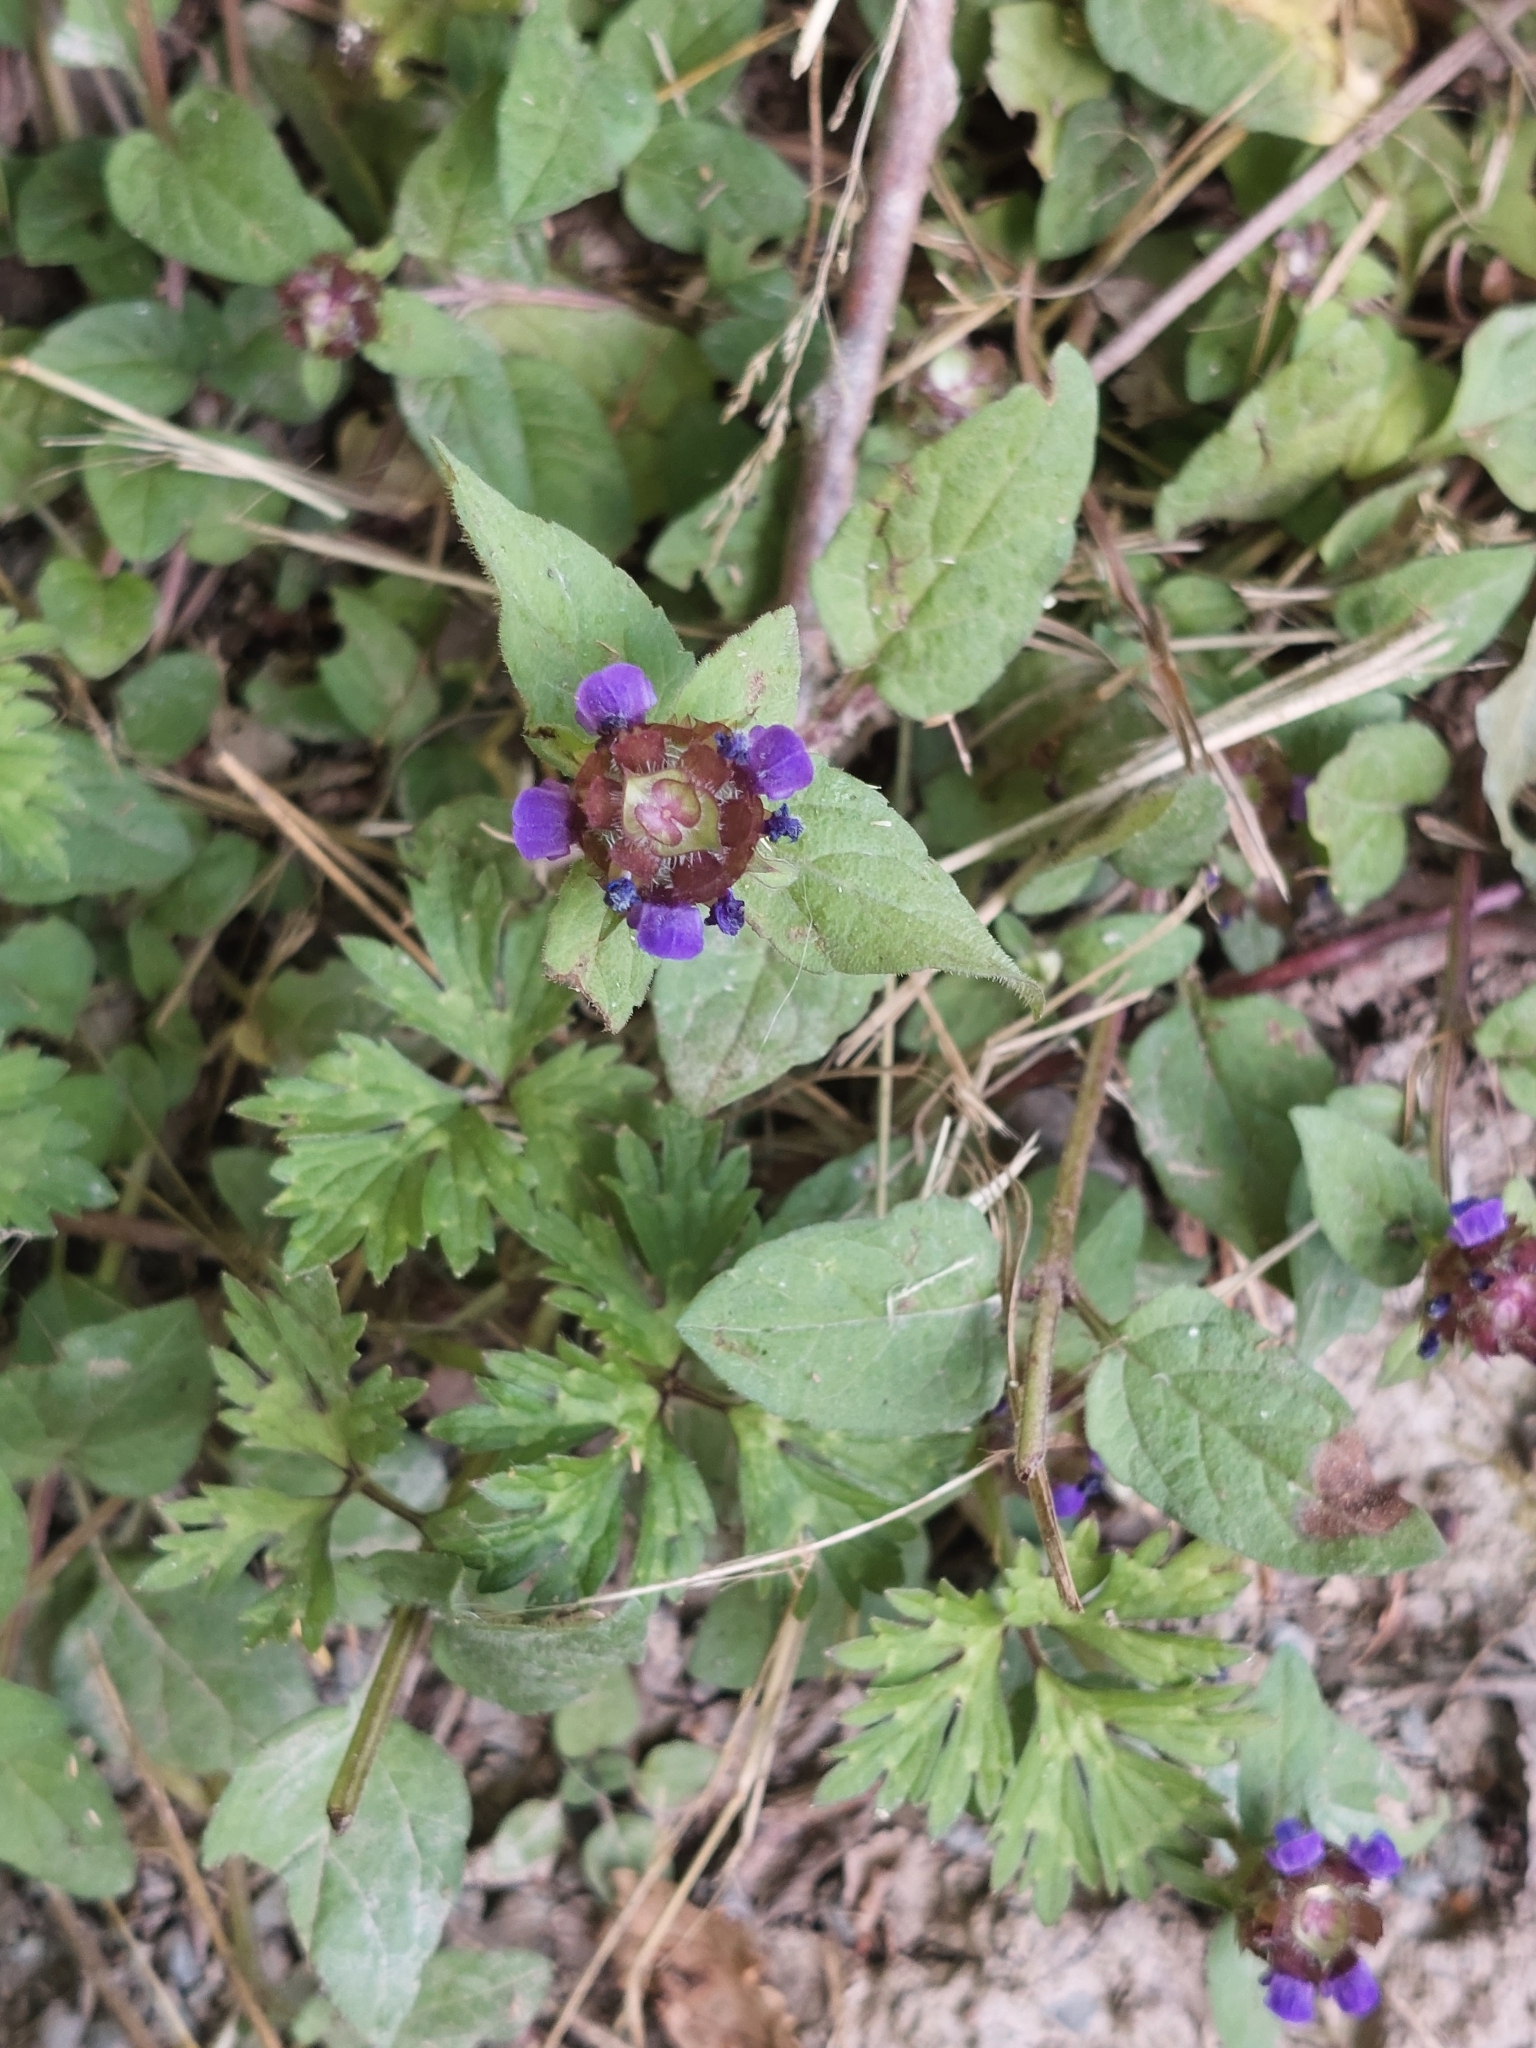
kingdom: Plantae
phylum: Tracheophyta
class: Magnoliopsida
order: Lamiales
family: Lamiaceae
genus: Prunella
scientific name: Prunella vulgaris
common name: Heal-all
